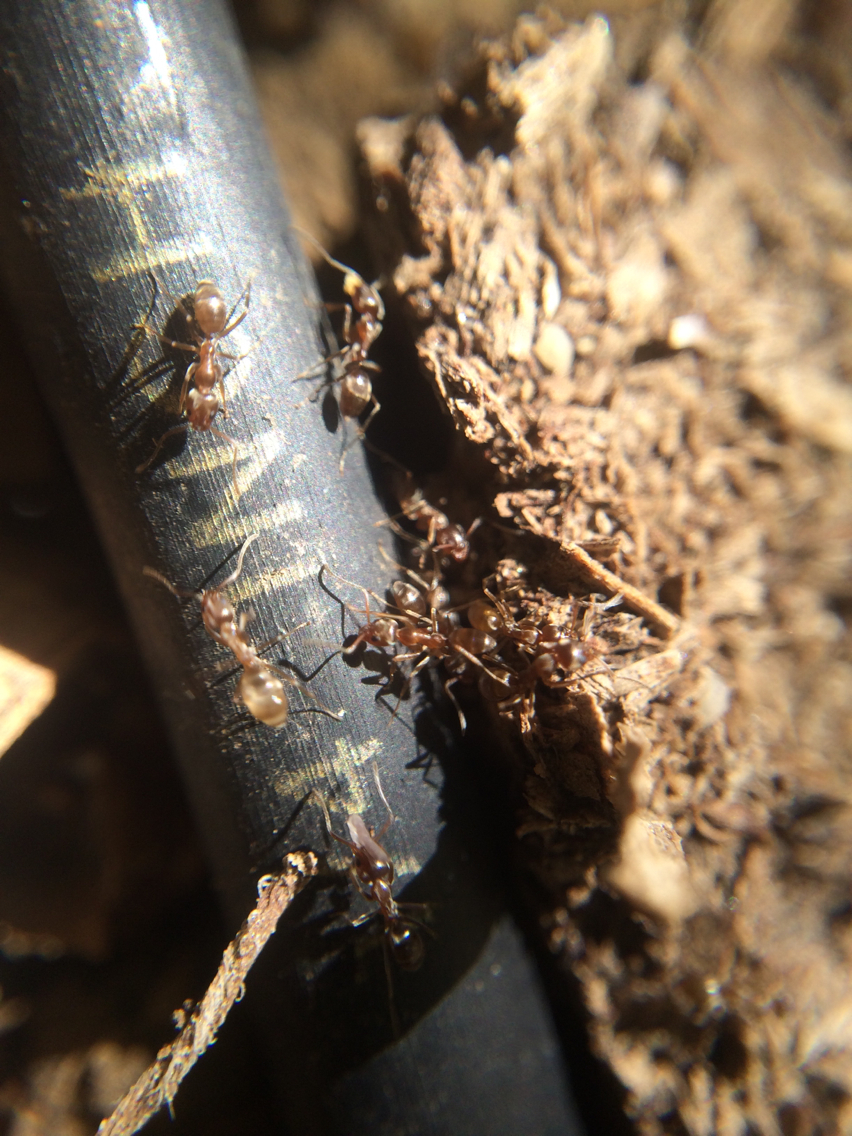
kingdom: Animalia
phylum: Arthropoda
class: Insecta
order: Hymenoptera
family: Formicidae
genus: Linepithema
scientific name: Linepithema humile
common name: Argentine ant
